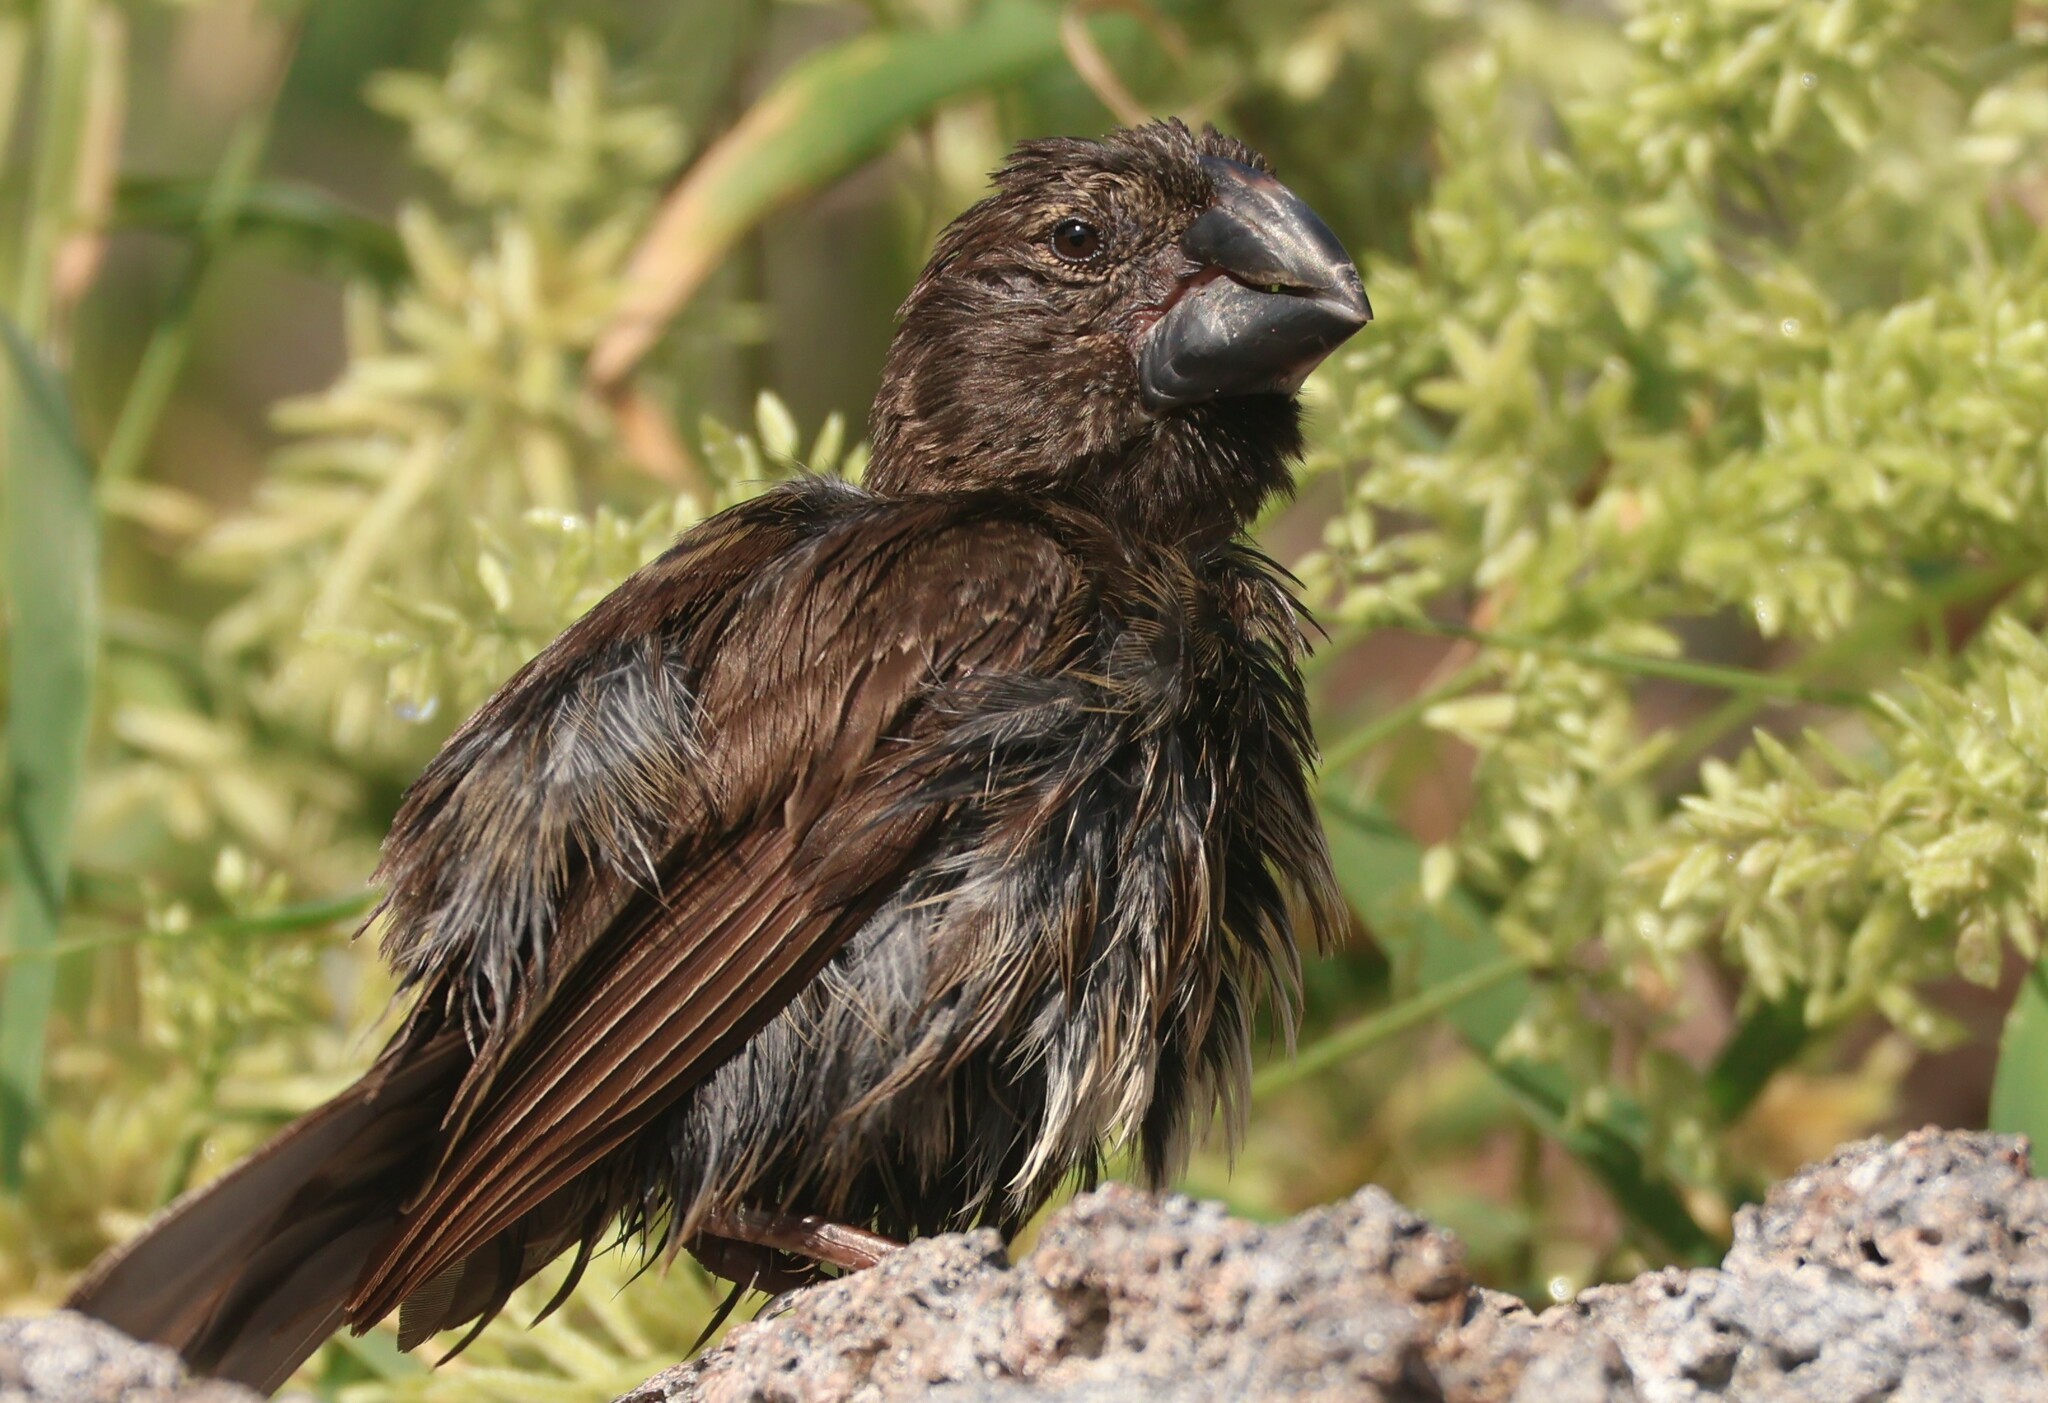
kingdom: Animalia
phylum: Chordata
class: Aves
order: Passeriformes
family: Thraupidae
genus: Geospiza
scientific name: Geospiza magnirostris
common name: Large ground-finch
